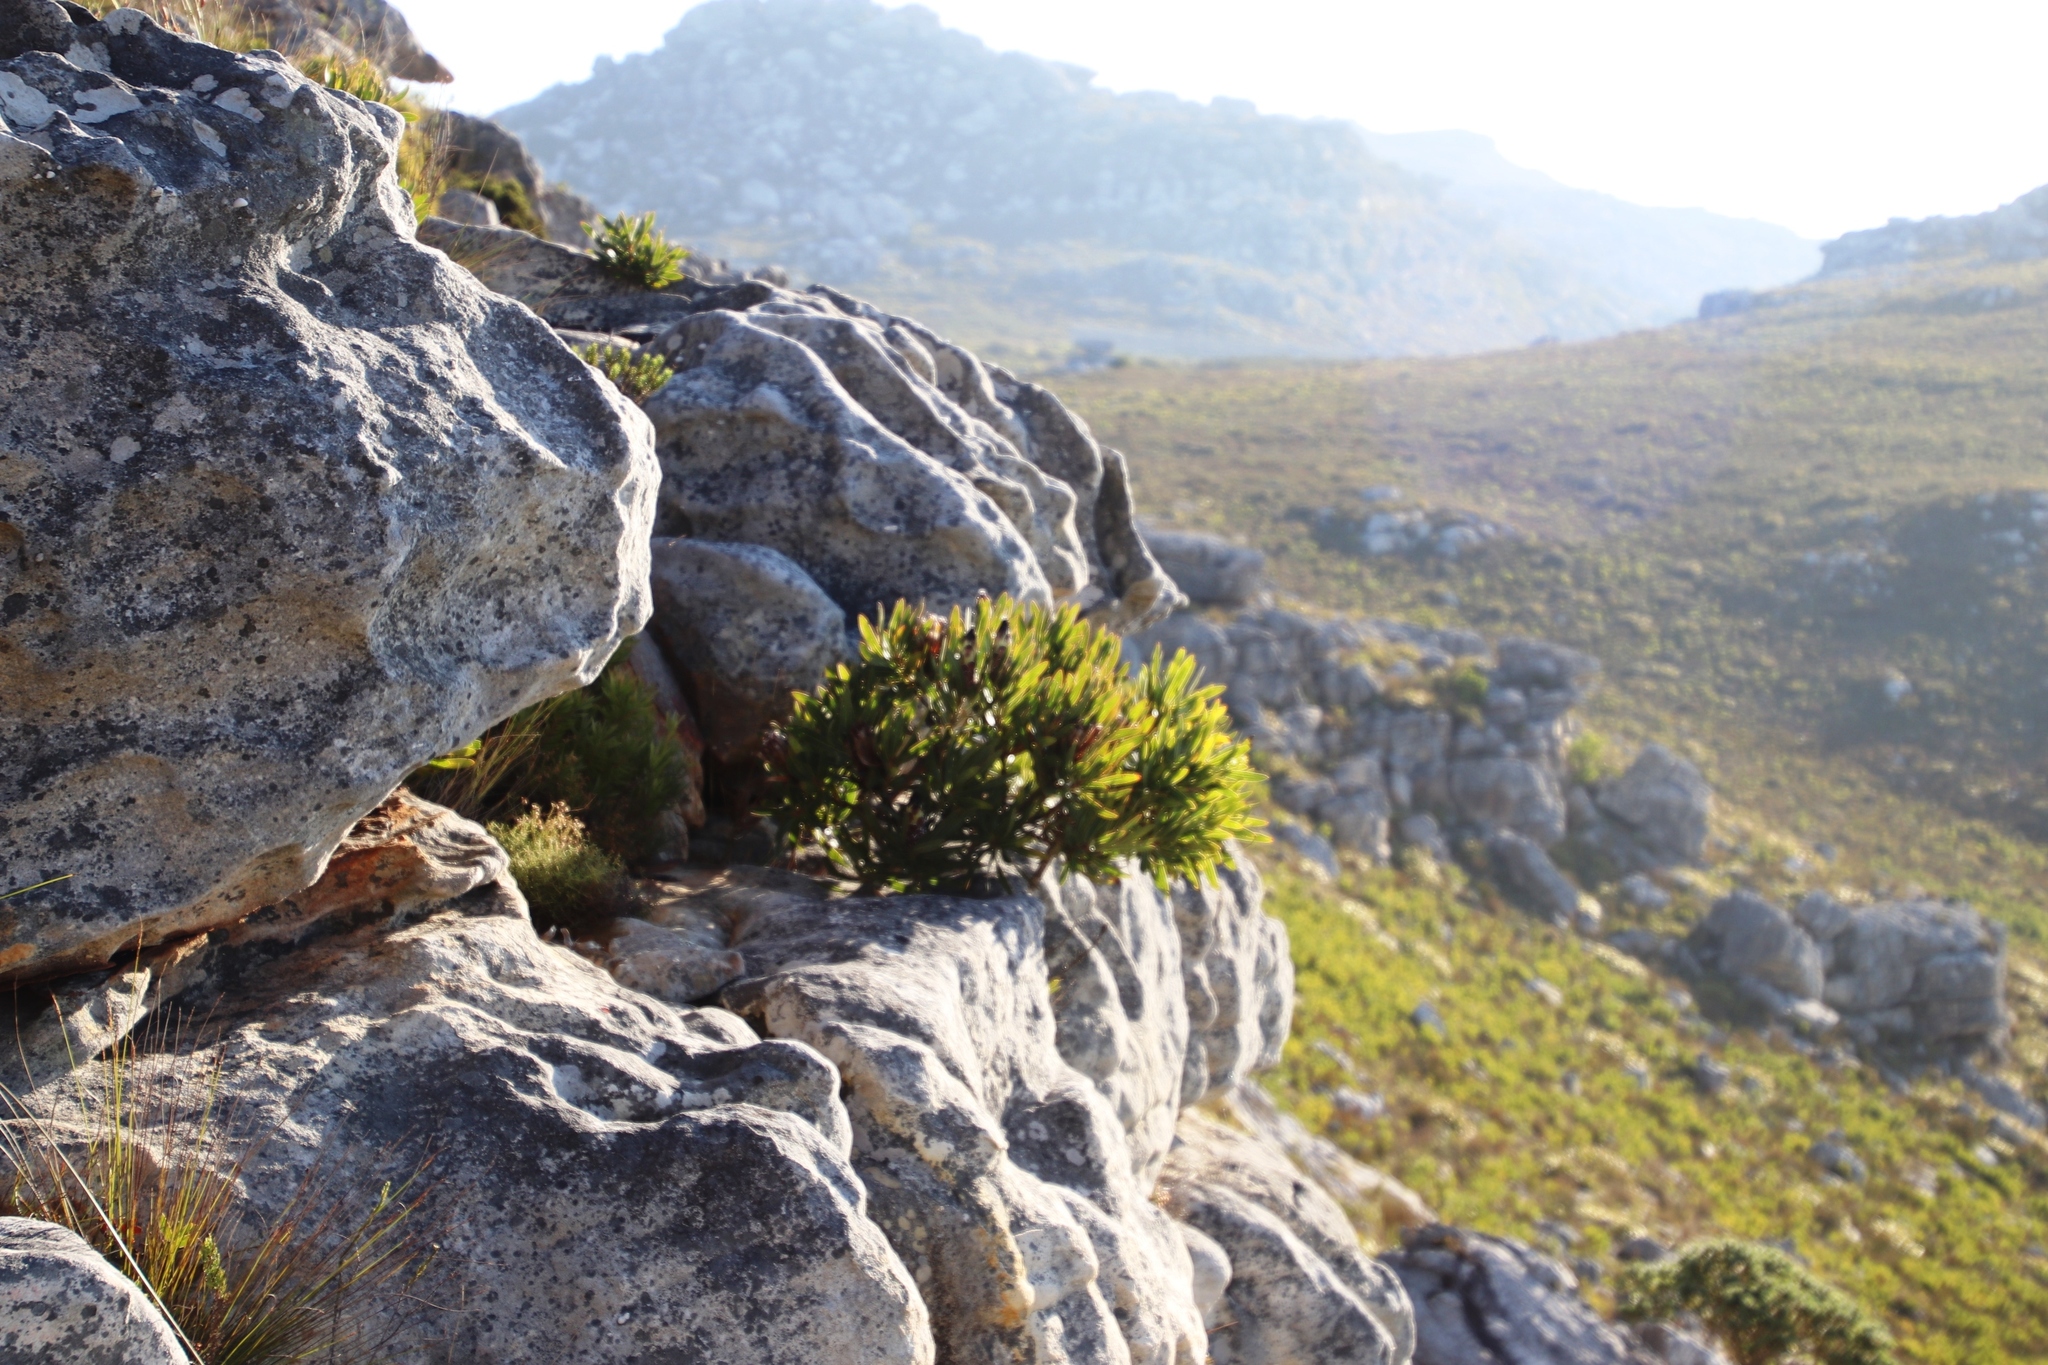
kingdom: Plantae
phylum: Tracheophyta
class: Magnoliopsida
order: Proteales
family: Proteaceae
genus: Protea
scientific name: Protea lepidocarpodendron
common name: Black-bearded protea
